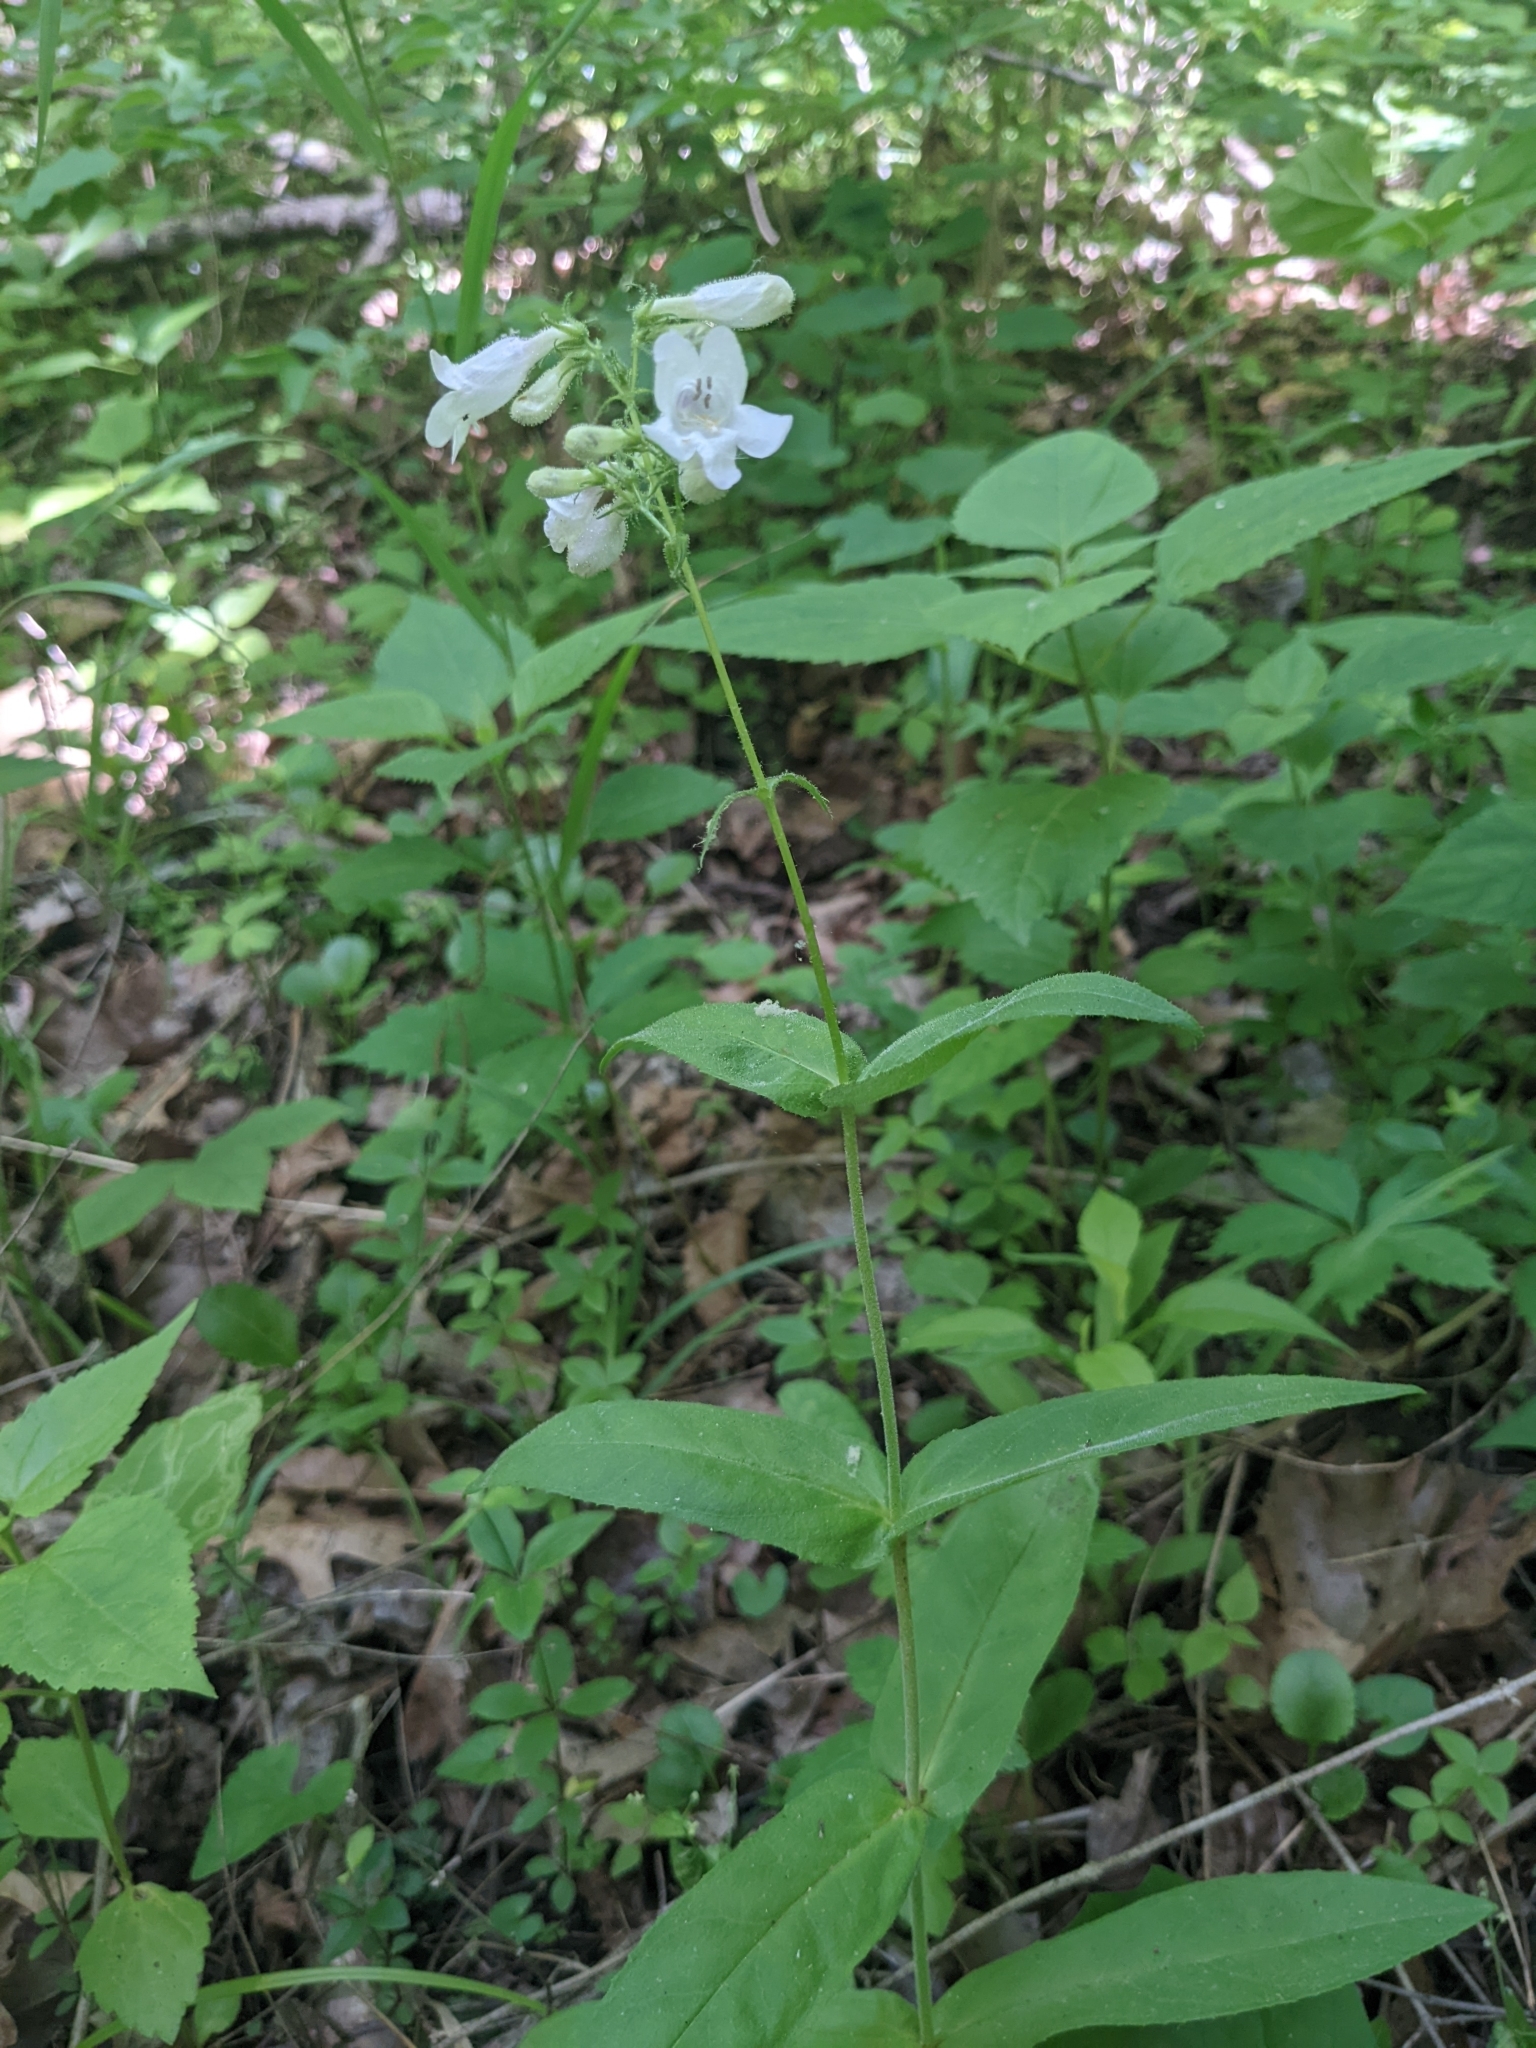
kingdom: Plantae
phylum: Tracheophyta
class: Magnoliopsida
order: Lamiales
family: Plantaginaceae
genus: Penstemon
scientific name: Penstemon digitalis
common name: Foxglove beardtongue
